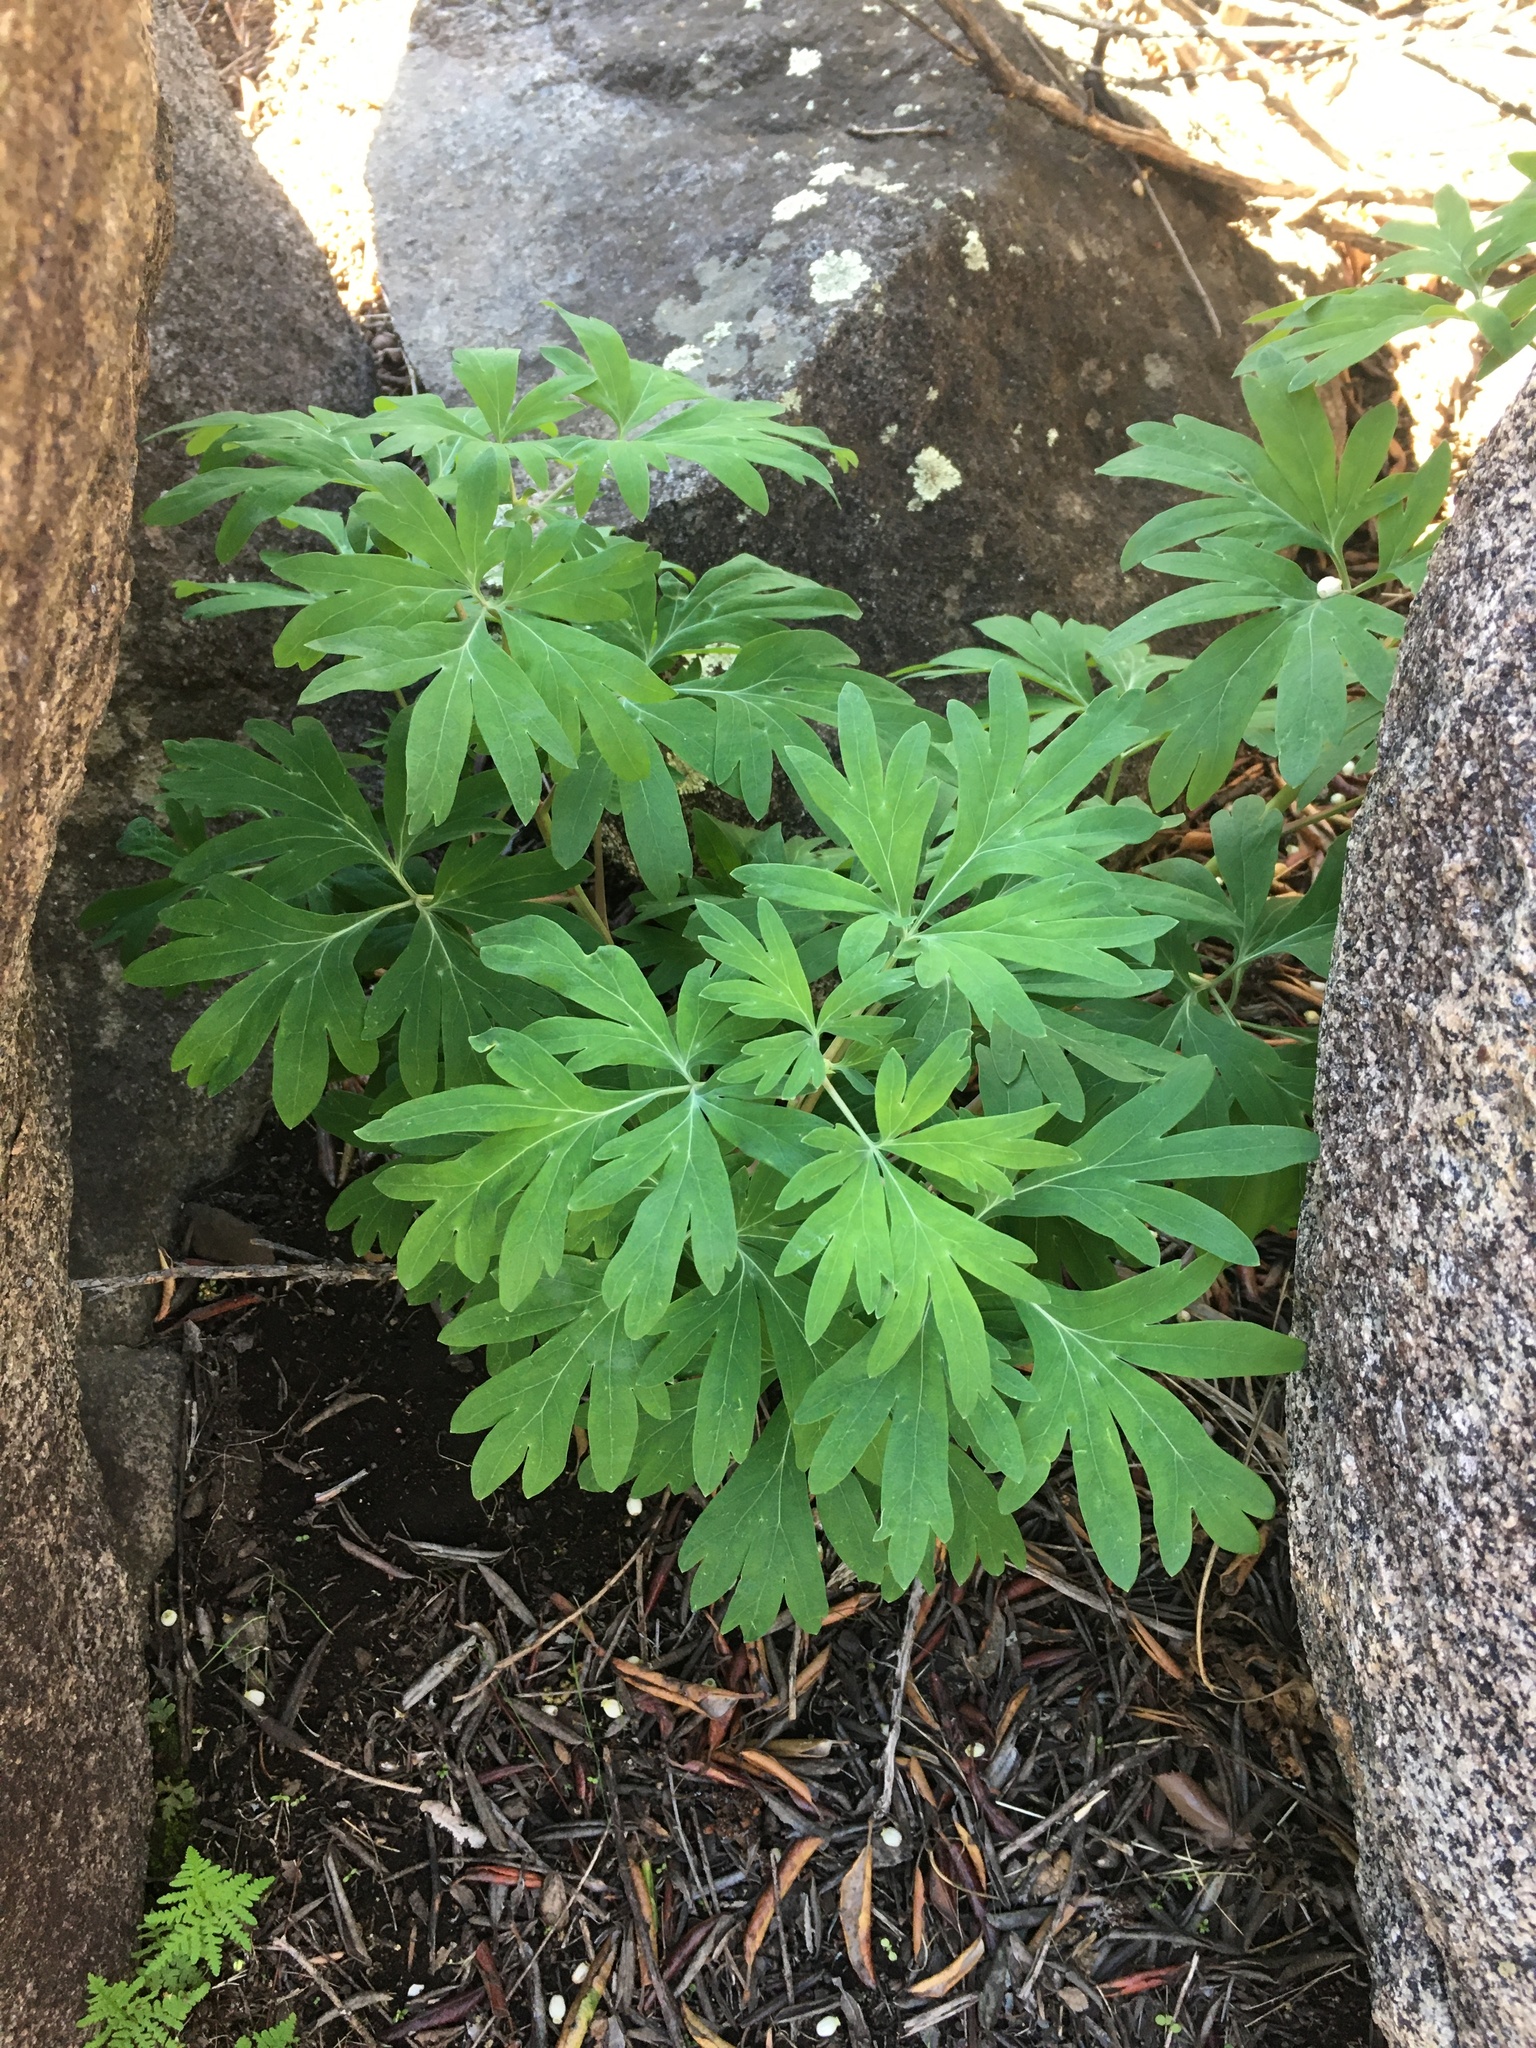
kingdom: Plantae
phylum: Tracheophyta
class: Magnoliopsida
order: Saxifragales
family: Paeoniaceae
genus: Paeonia
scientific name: Paeonia californica
